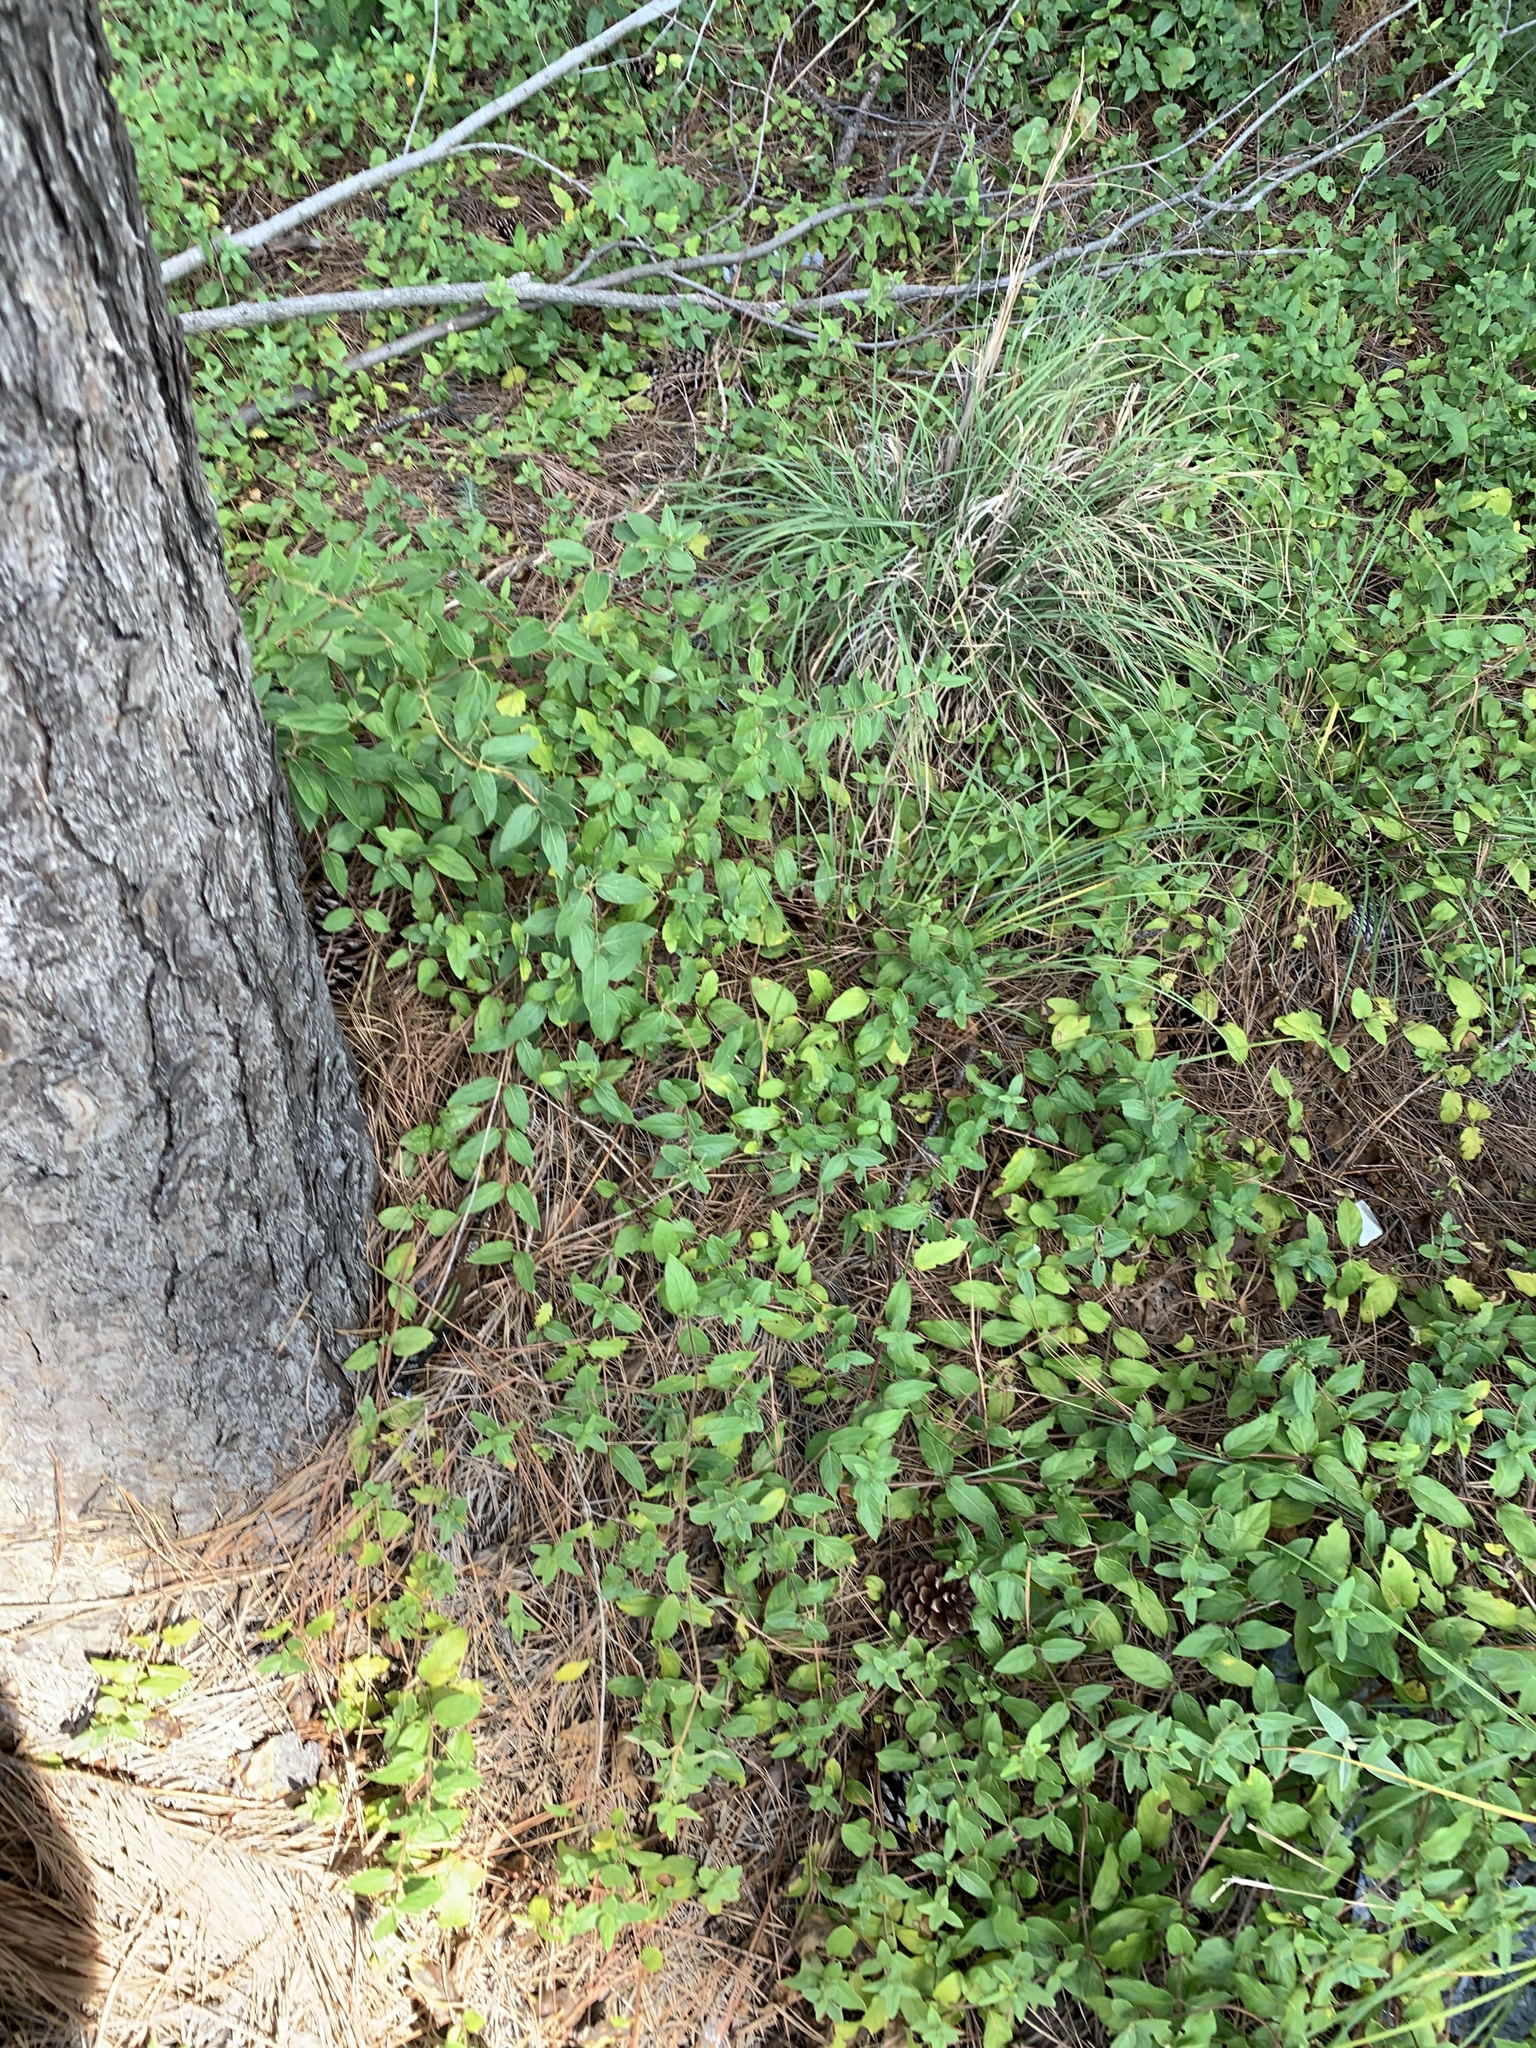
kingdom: Plantae
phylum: Tracheophyta
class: Magnoliopsida
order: Dipsacales
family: Caprifoliaceae
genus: Lonicera
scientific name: Lonicera japonica
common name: Japanese honeysuckle
